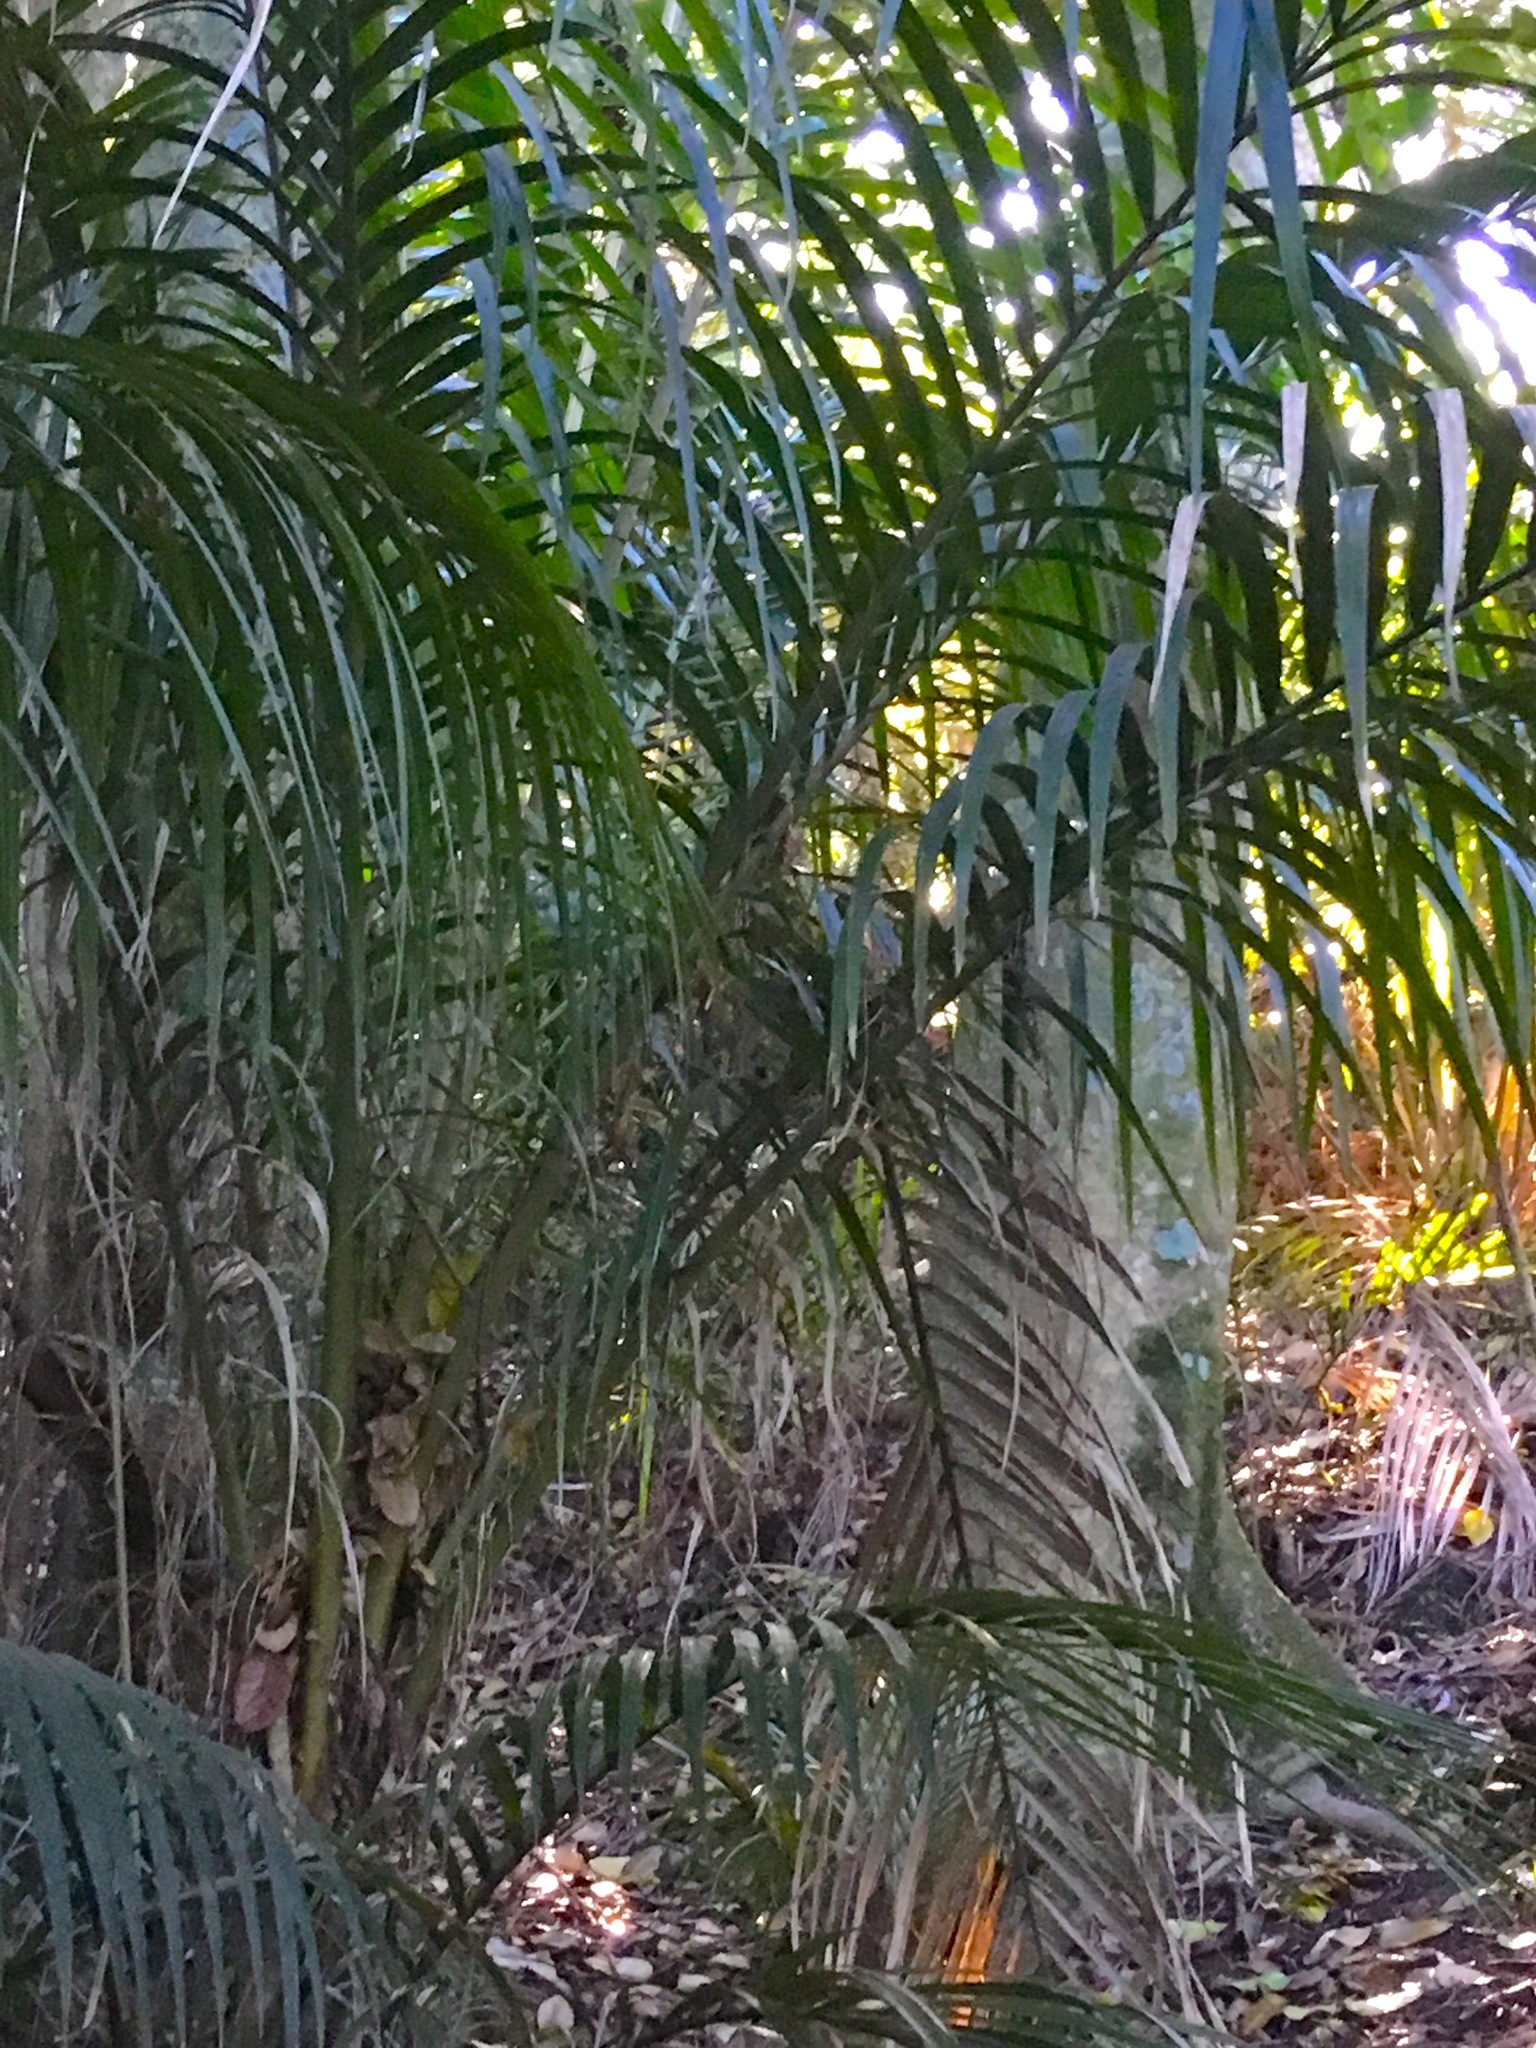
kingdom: Plantae
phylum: Tracheophyta
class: Liliopsida
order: Arecales
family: Arecaceae
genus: Rhopalostylis
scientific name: Rhopalostylis sapida
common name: Feather-duster palm
